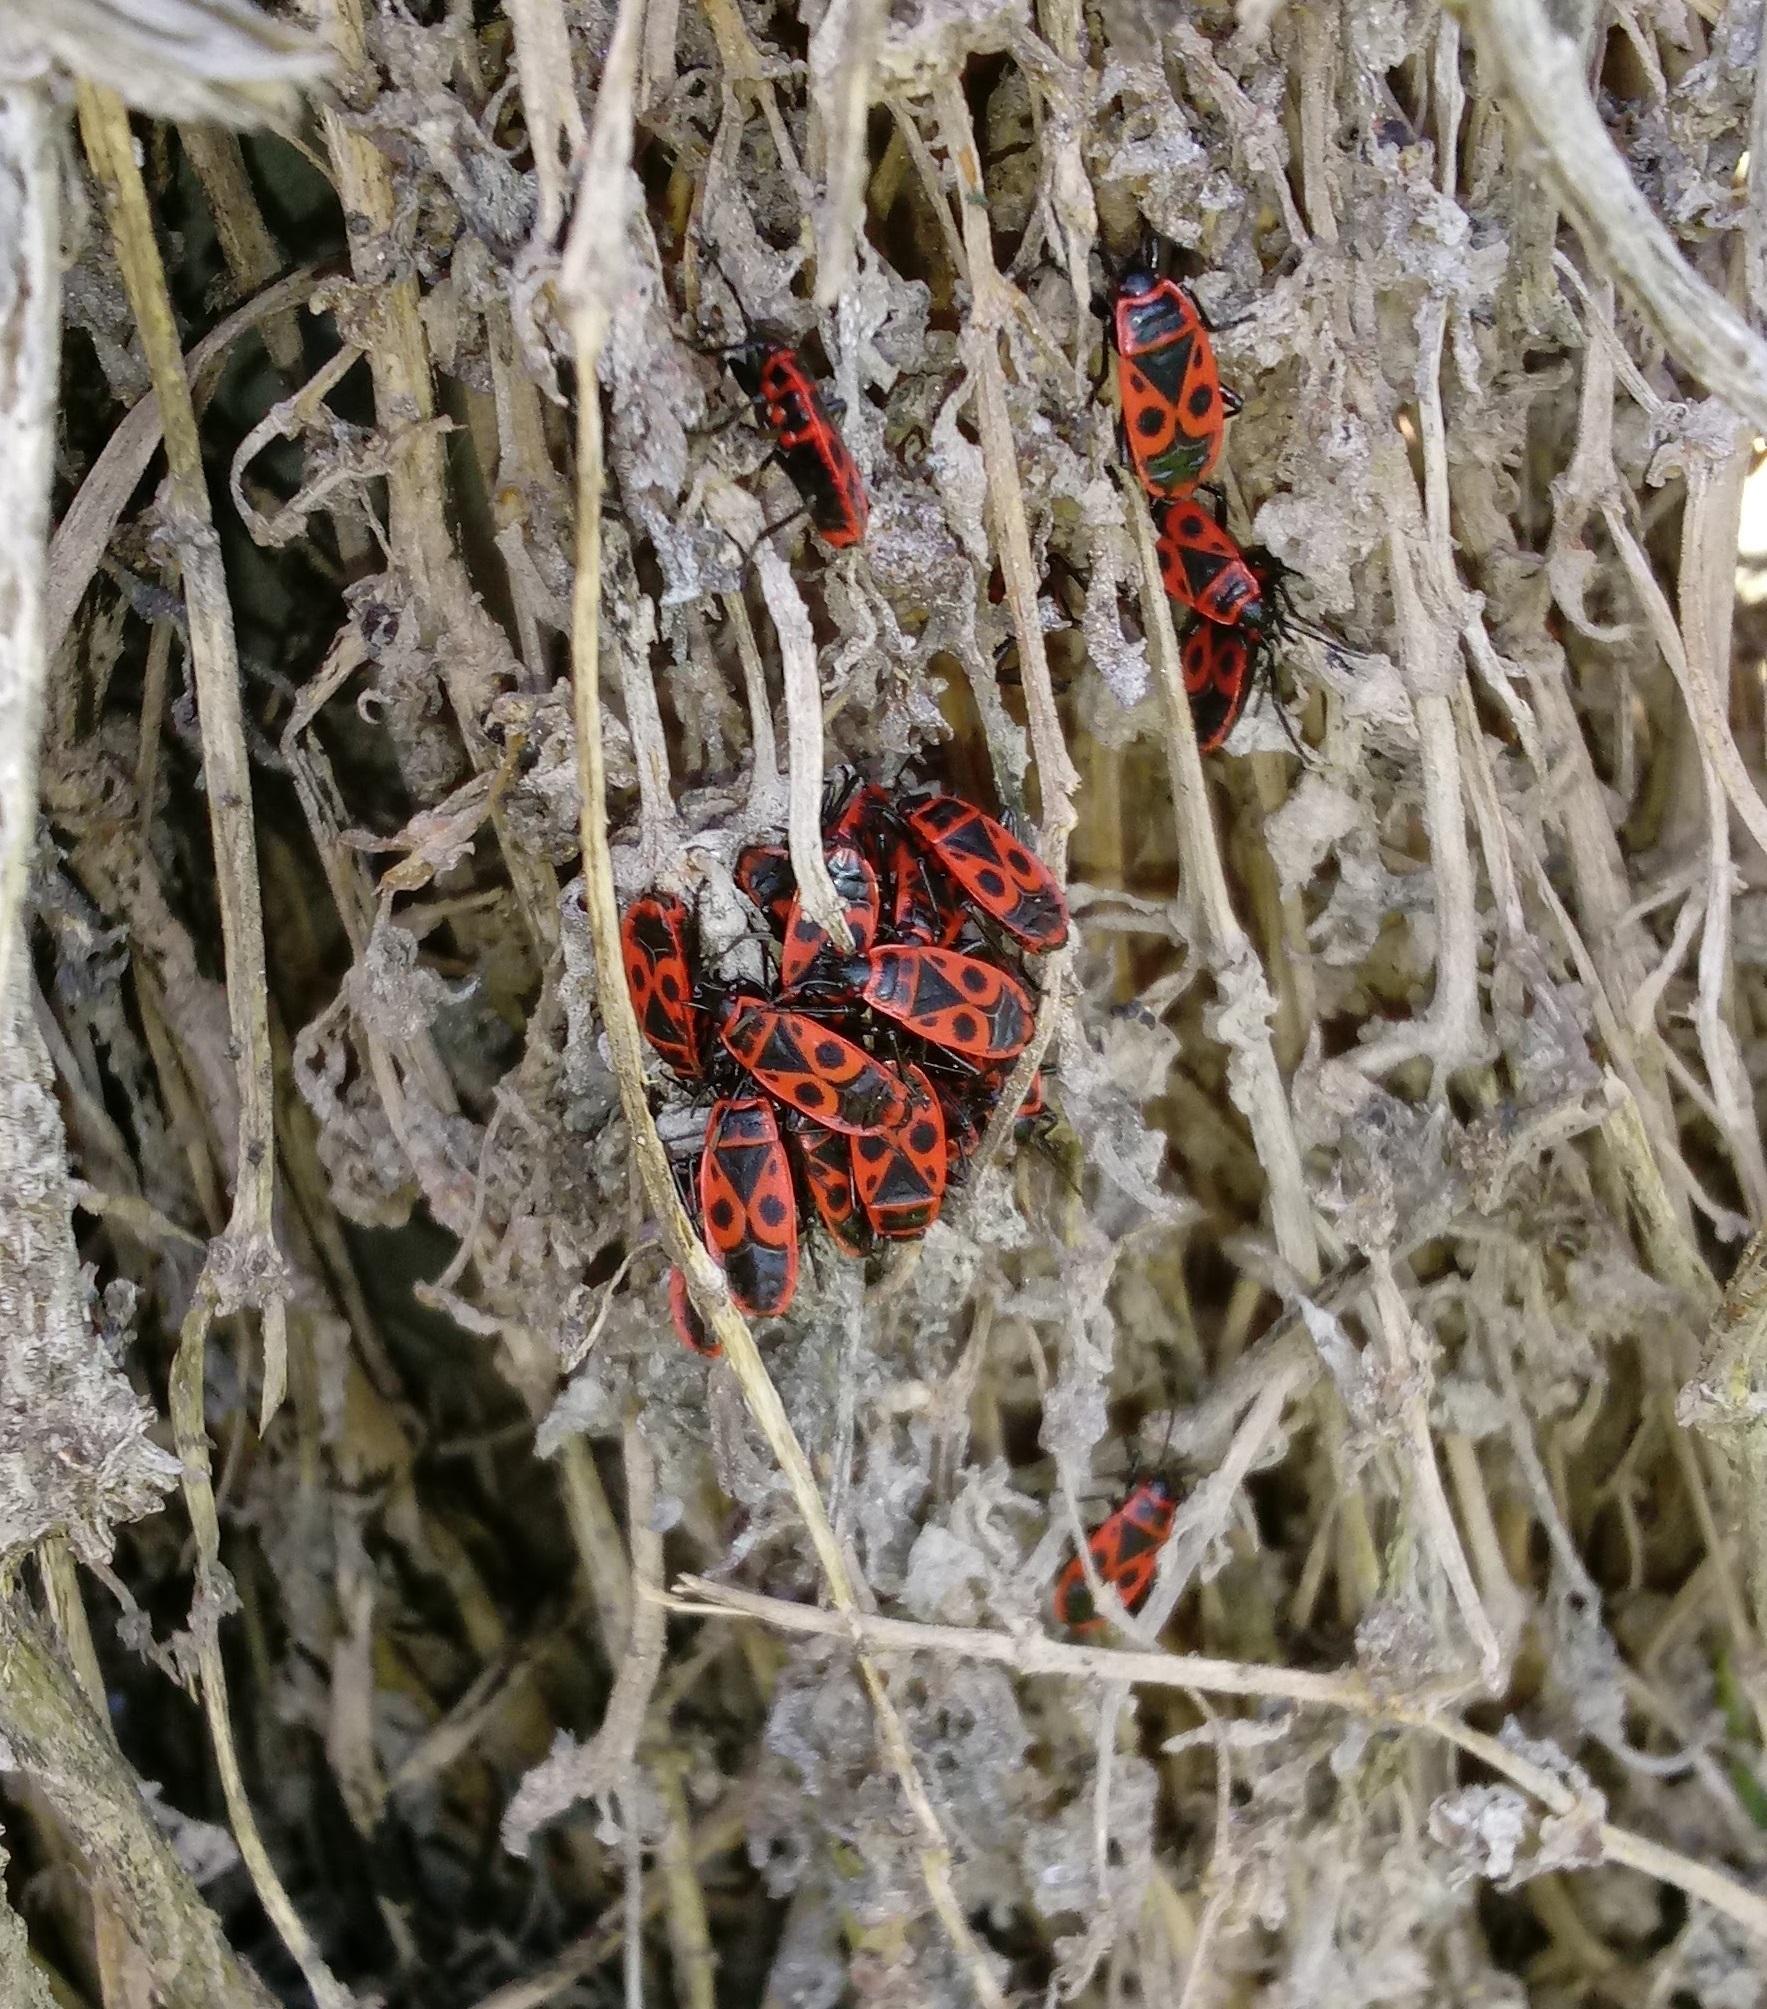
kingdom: Animalia
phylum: Arthropoda
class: Insecta
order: Hemiptera
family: Pyrrhocoridae
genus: Pyrrhocoris
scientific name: Pyrrhocoris apterus
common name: Firebug
